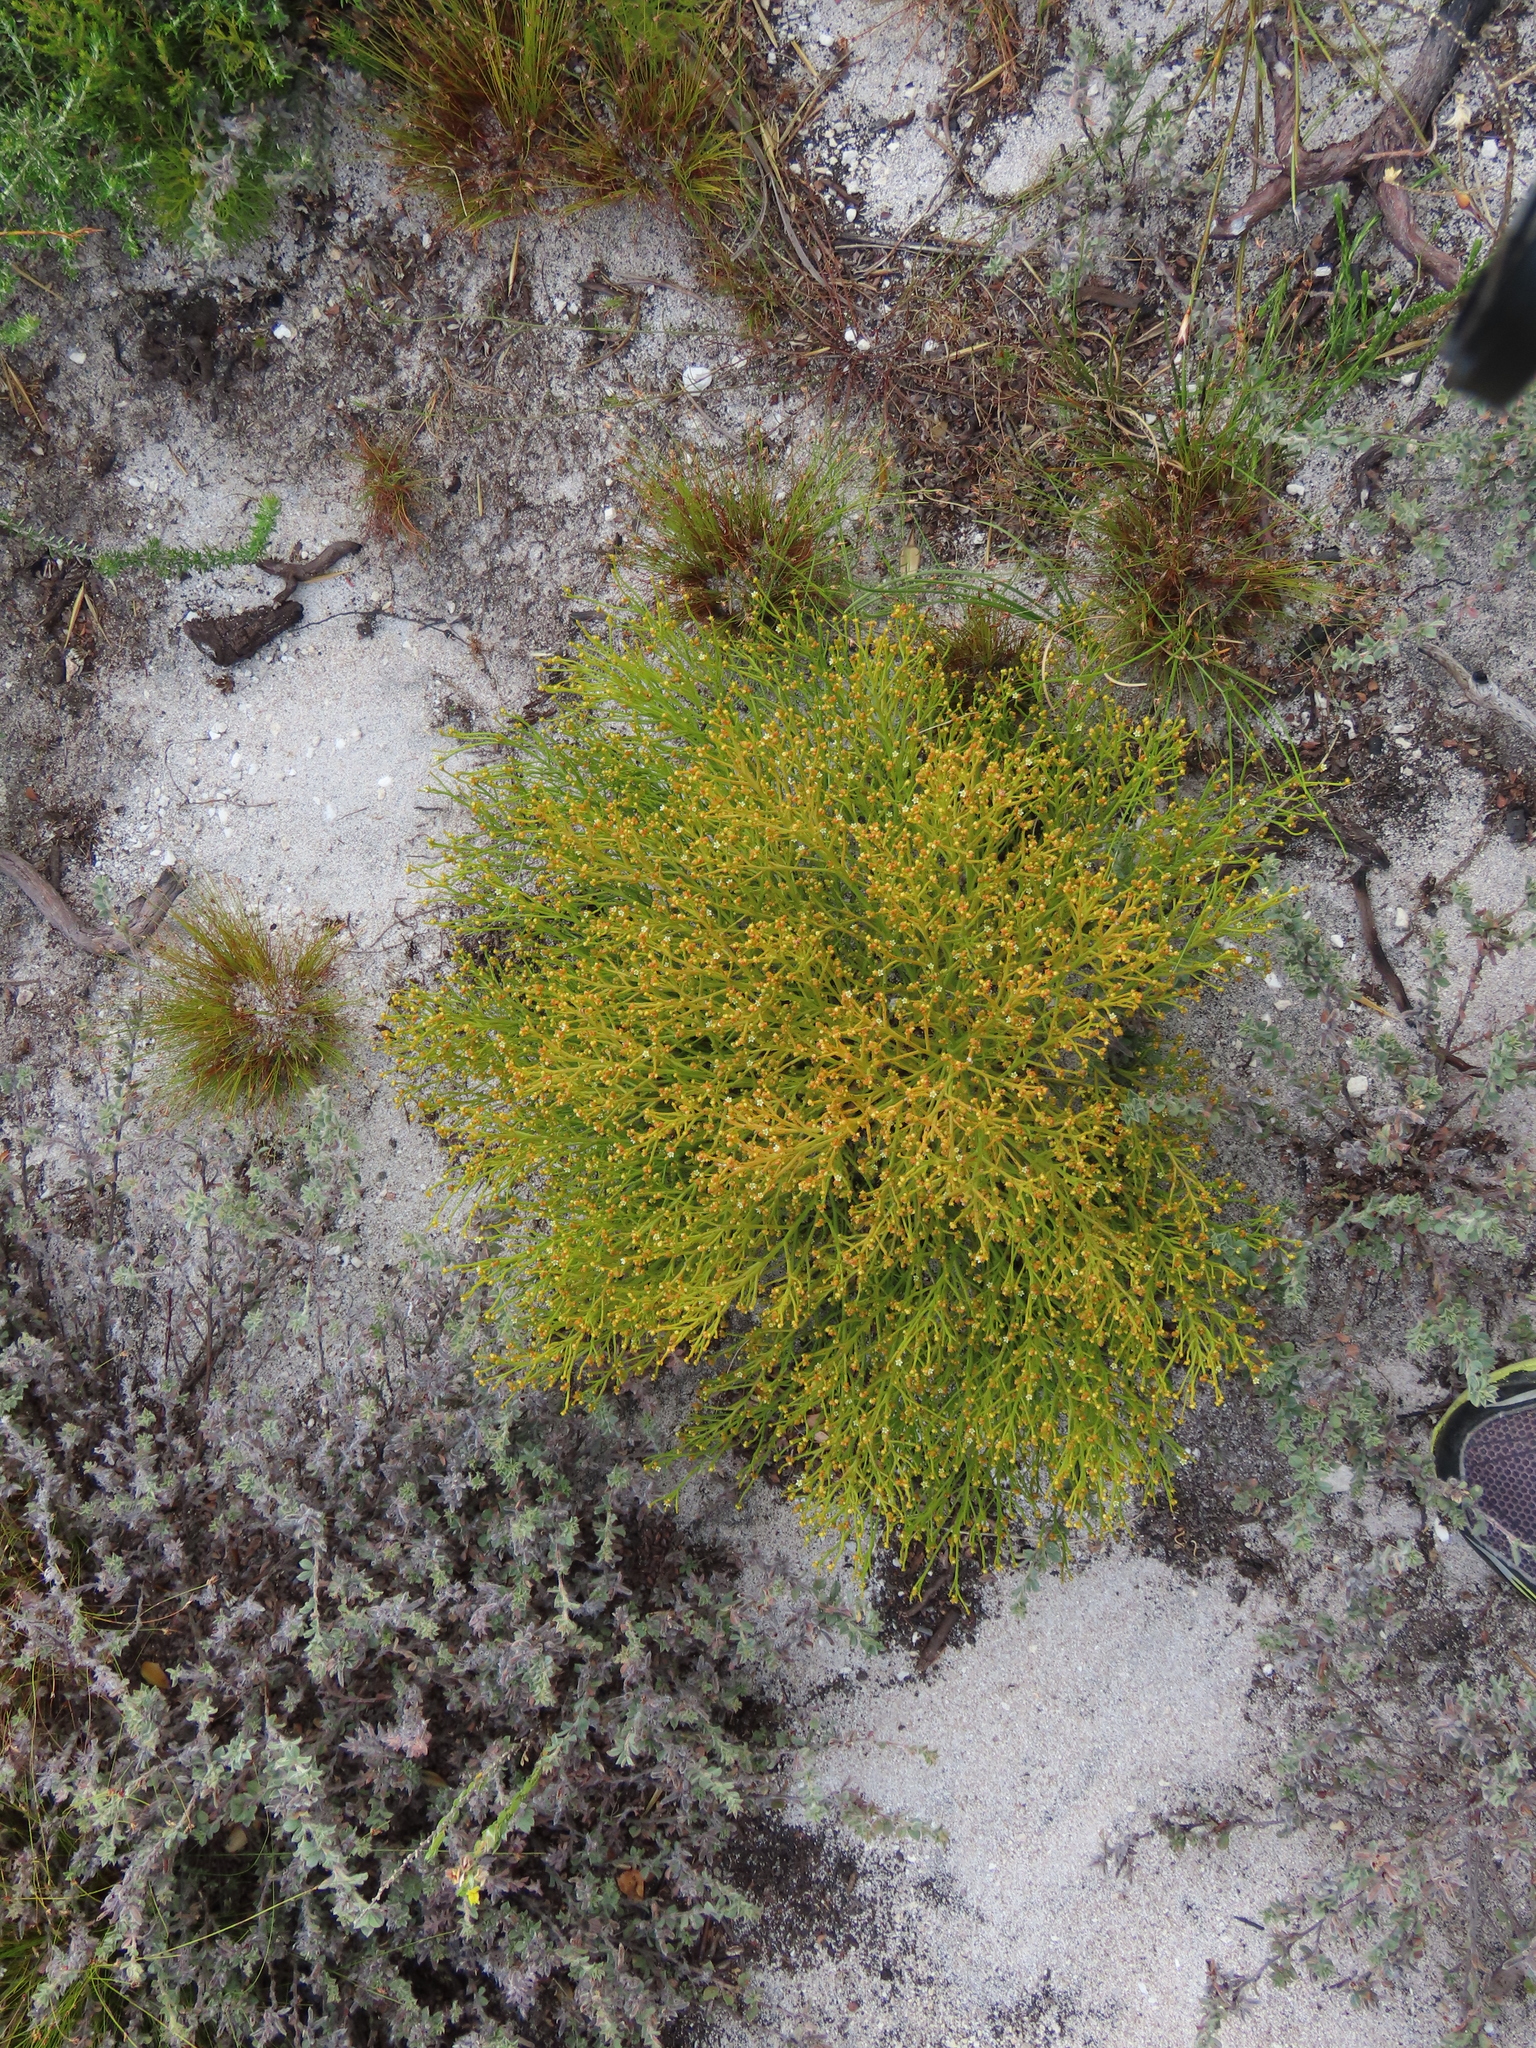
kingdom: Plantae
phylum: Tracheophyta
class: Magnoliopsida
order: Santalales
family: Thesiaceae
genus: Thesium
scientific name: Thesium commutatum
